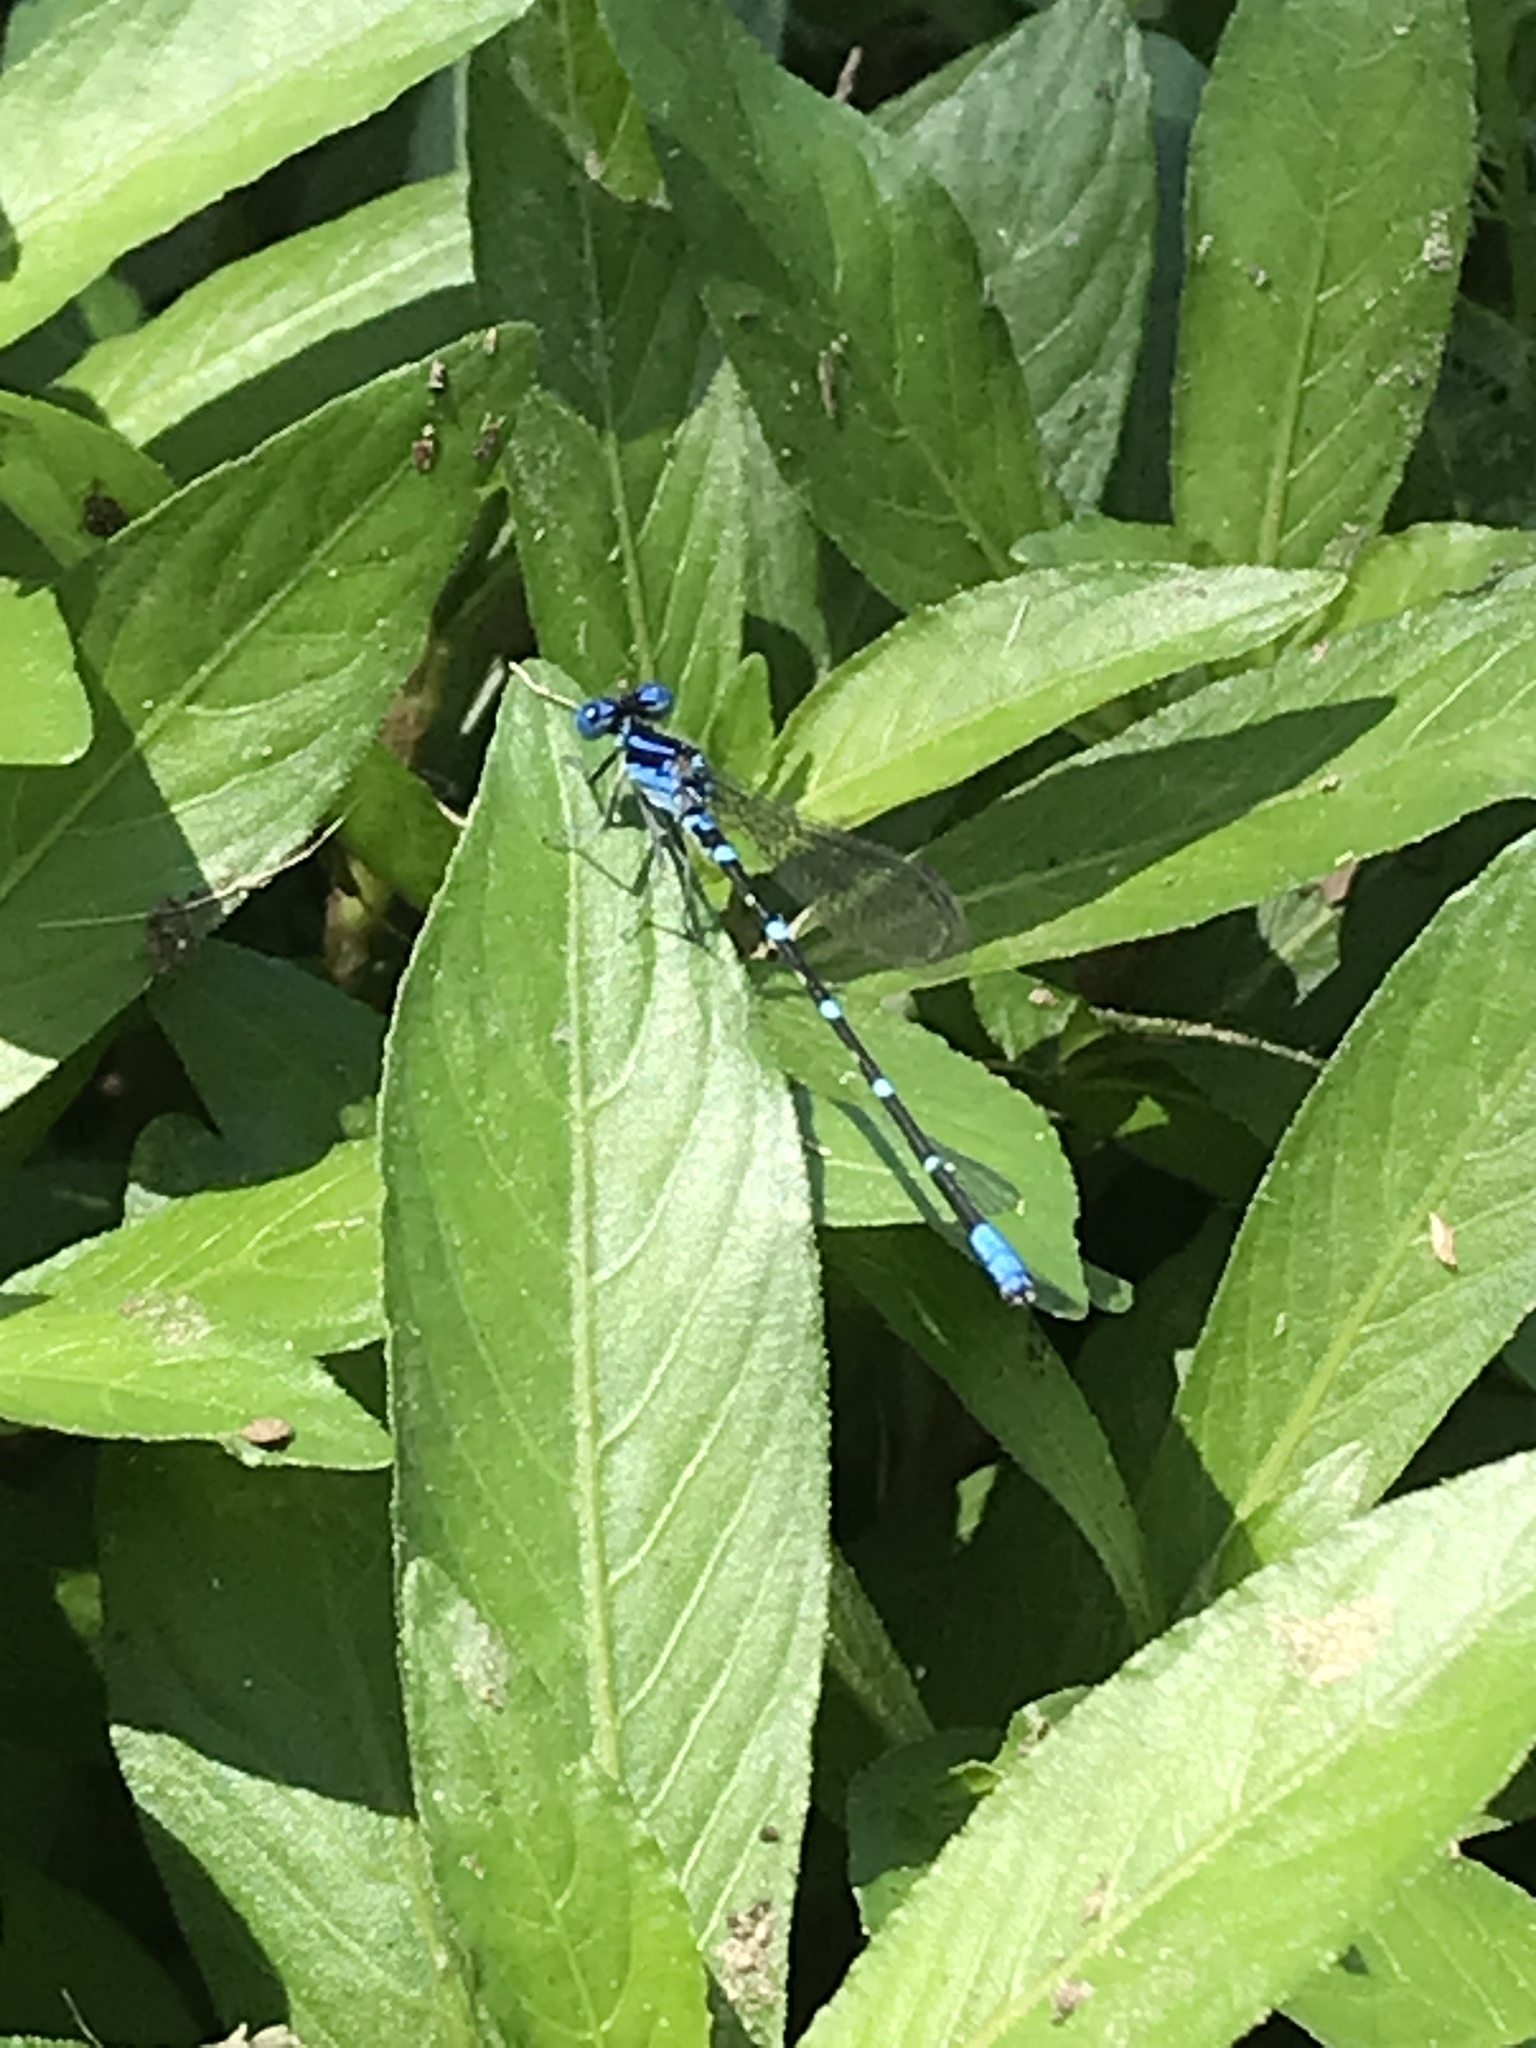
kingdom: Animalia
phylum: Arthropoda
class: Insecta
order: Odonata
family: Coenagrionidae
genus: Argia
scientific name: Argia sedula
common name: Blue-ringed dancer
